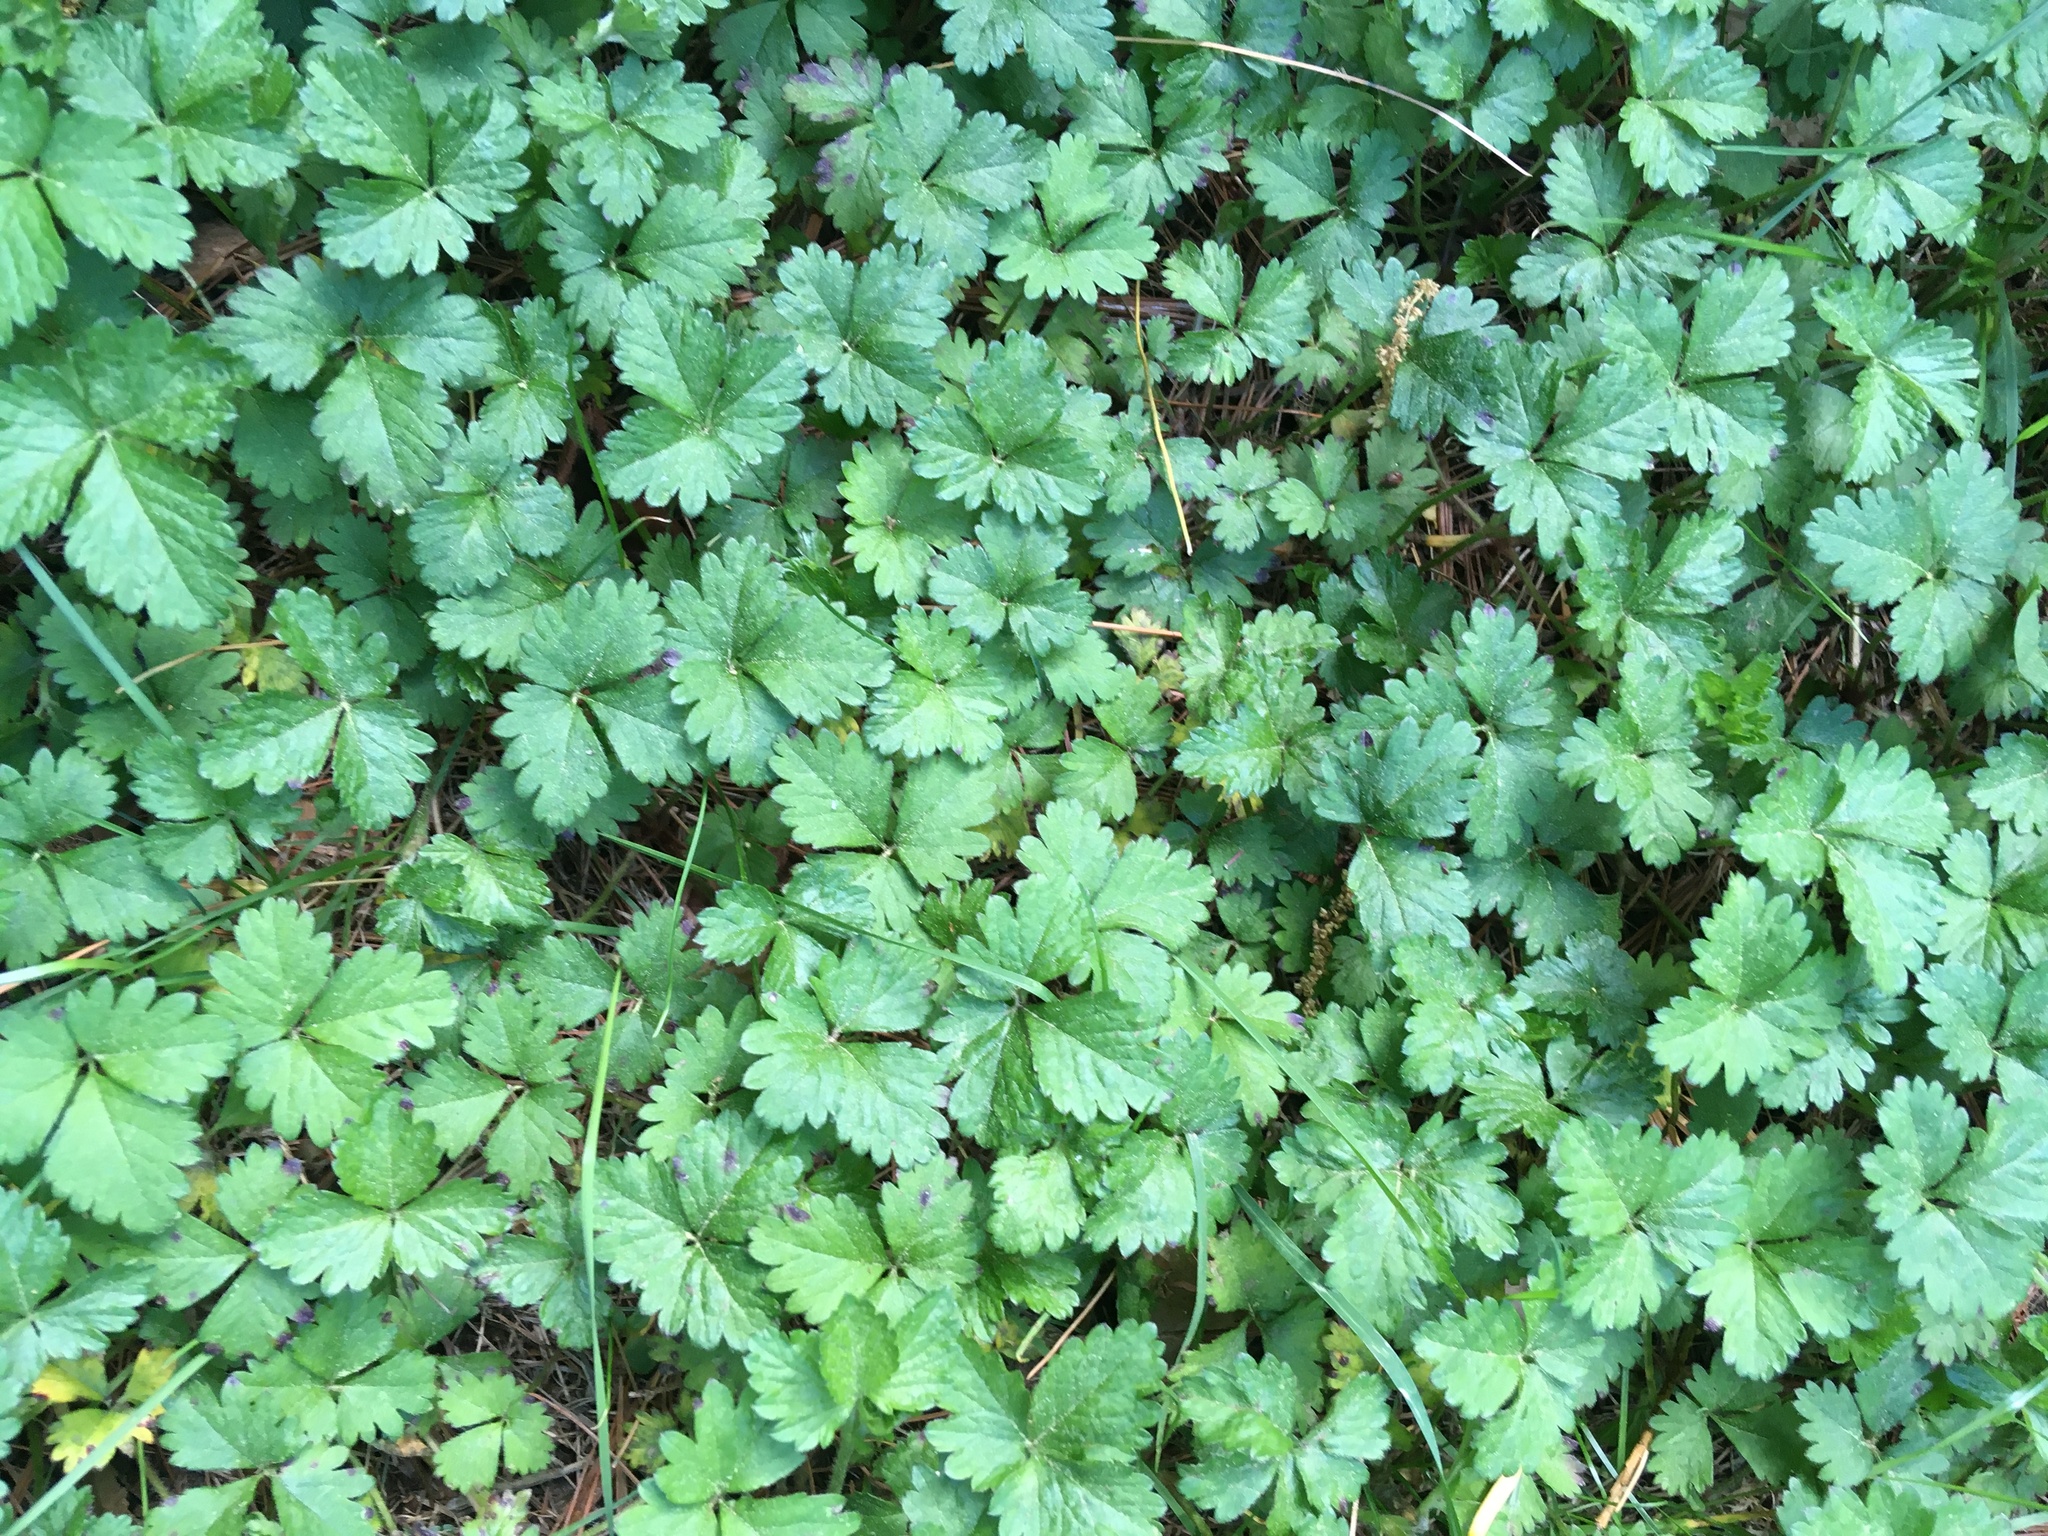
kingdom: Plantae
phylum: Tracheophyta
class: Magnoliopsida
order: Rosales
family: Rosaceae
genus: Potentilla
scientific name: Potentilla indica
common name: Yellow-flowered strawberry
